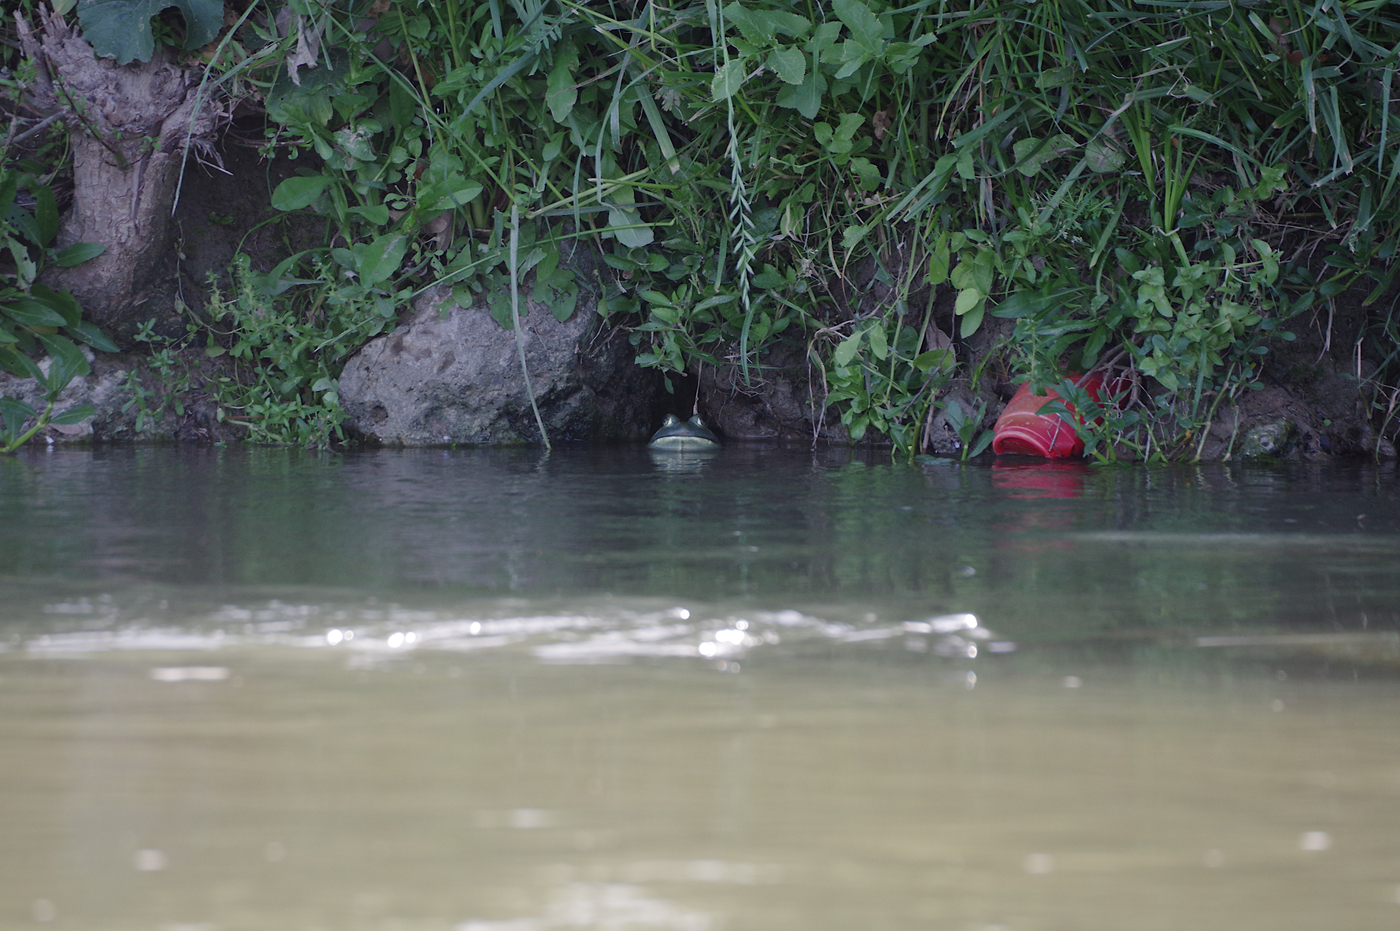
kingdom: Animalia
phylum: Chordata
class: Amphibia
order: Anura
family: Ranidae
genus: Lithobates
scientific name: Lithobates catesbeianus
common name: American bullfrog
